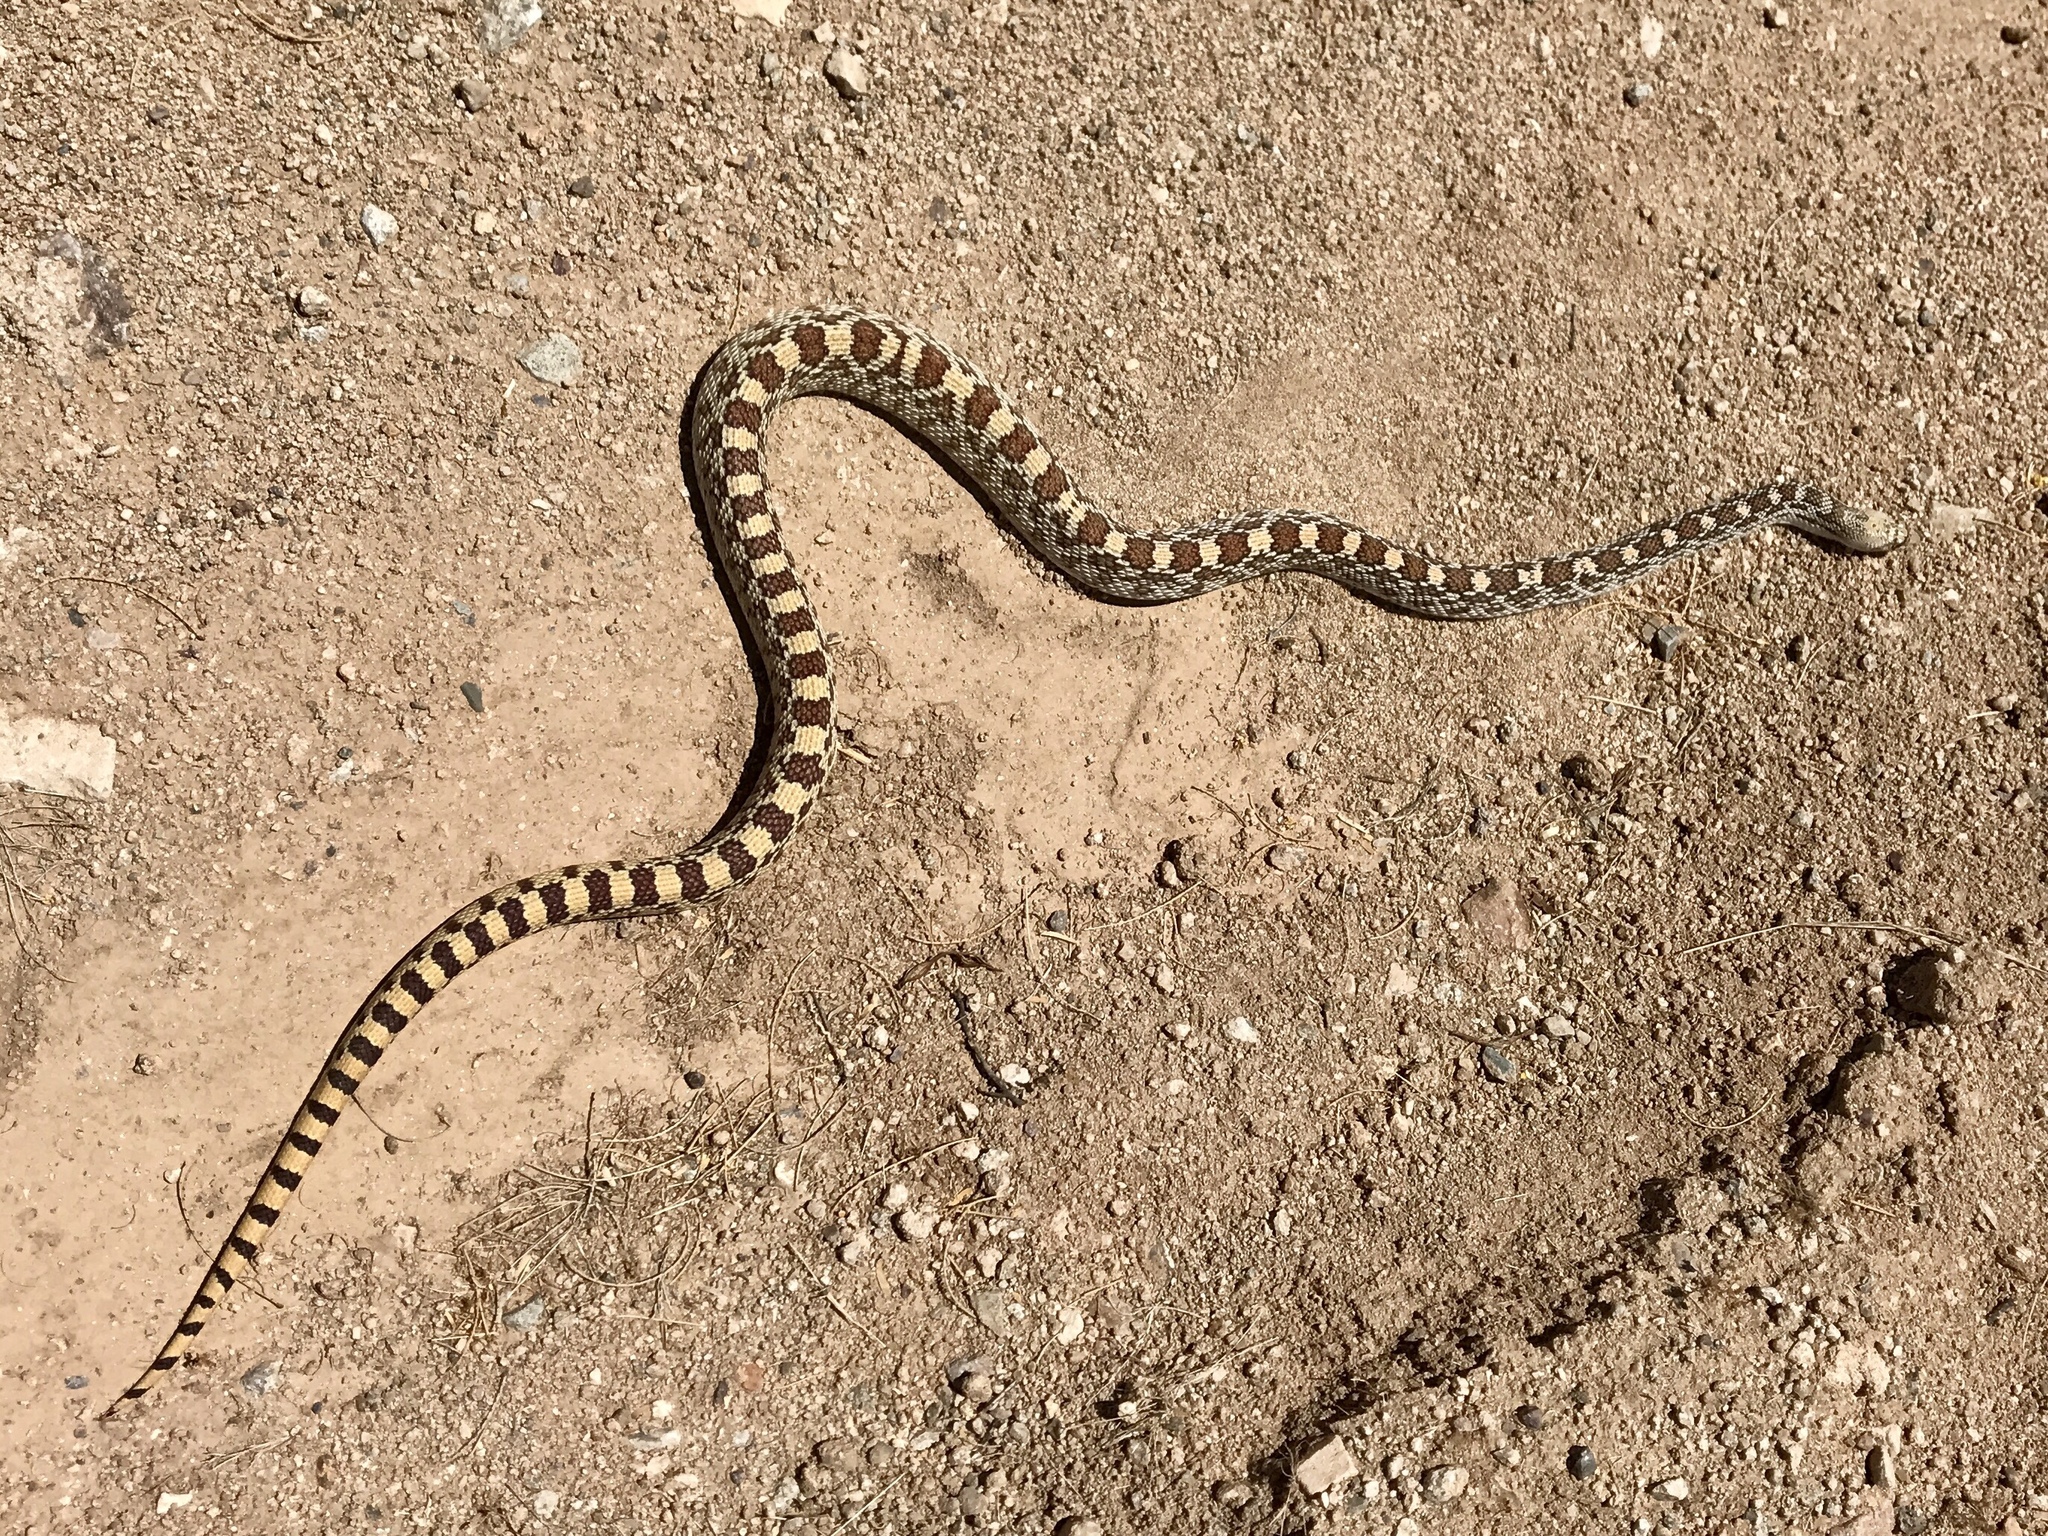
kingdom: Animalia
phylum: Chordata
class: Squamata
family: Colubridae
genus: Pituophis
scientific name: Pituophis catenifer
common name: Gopher snake
